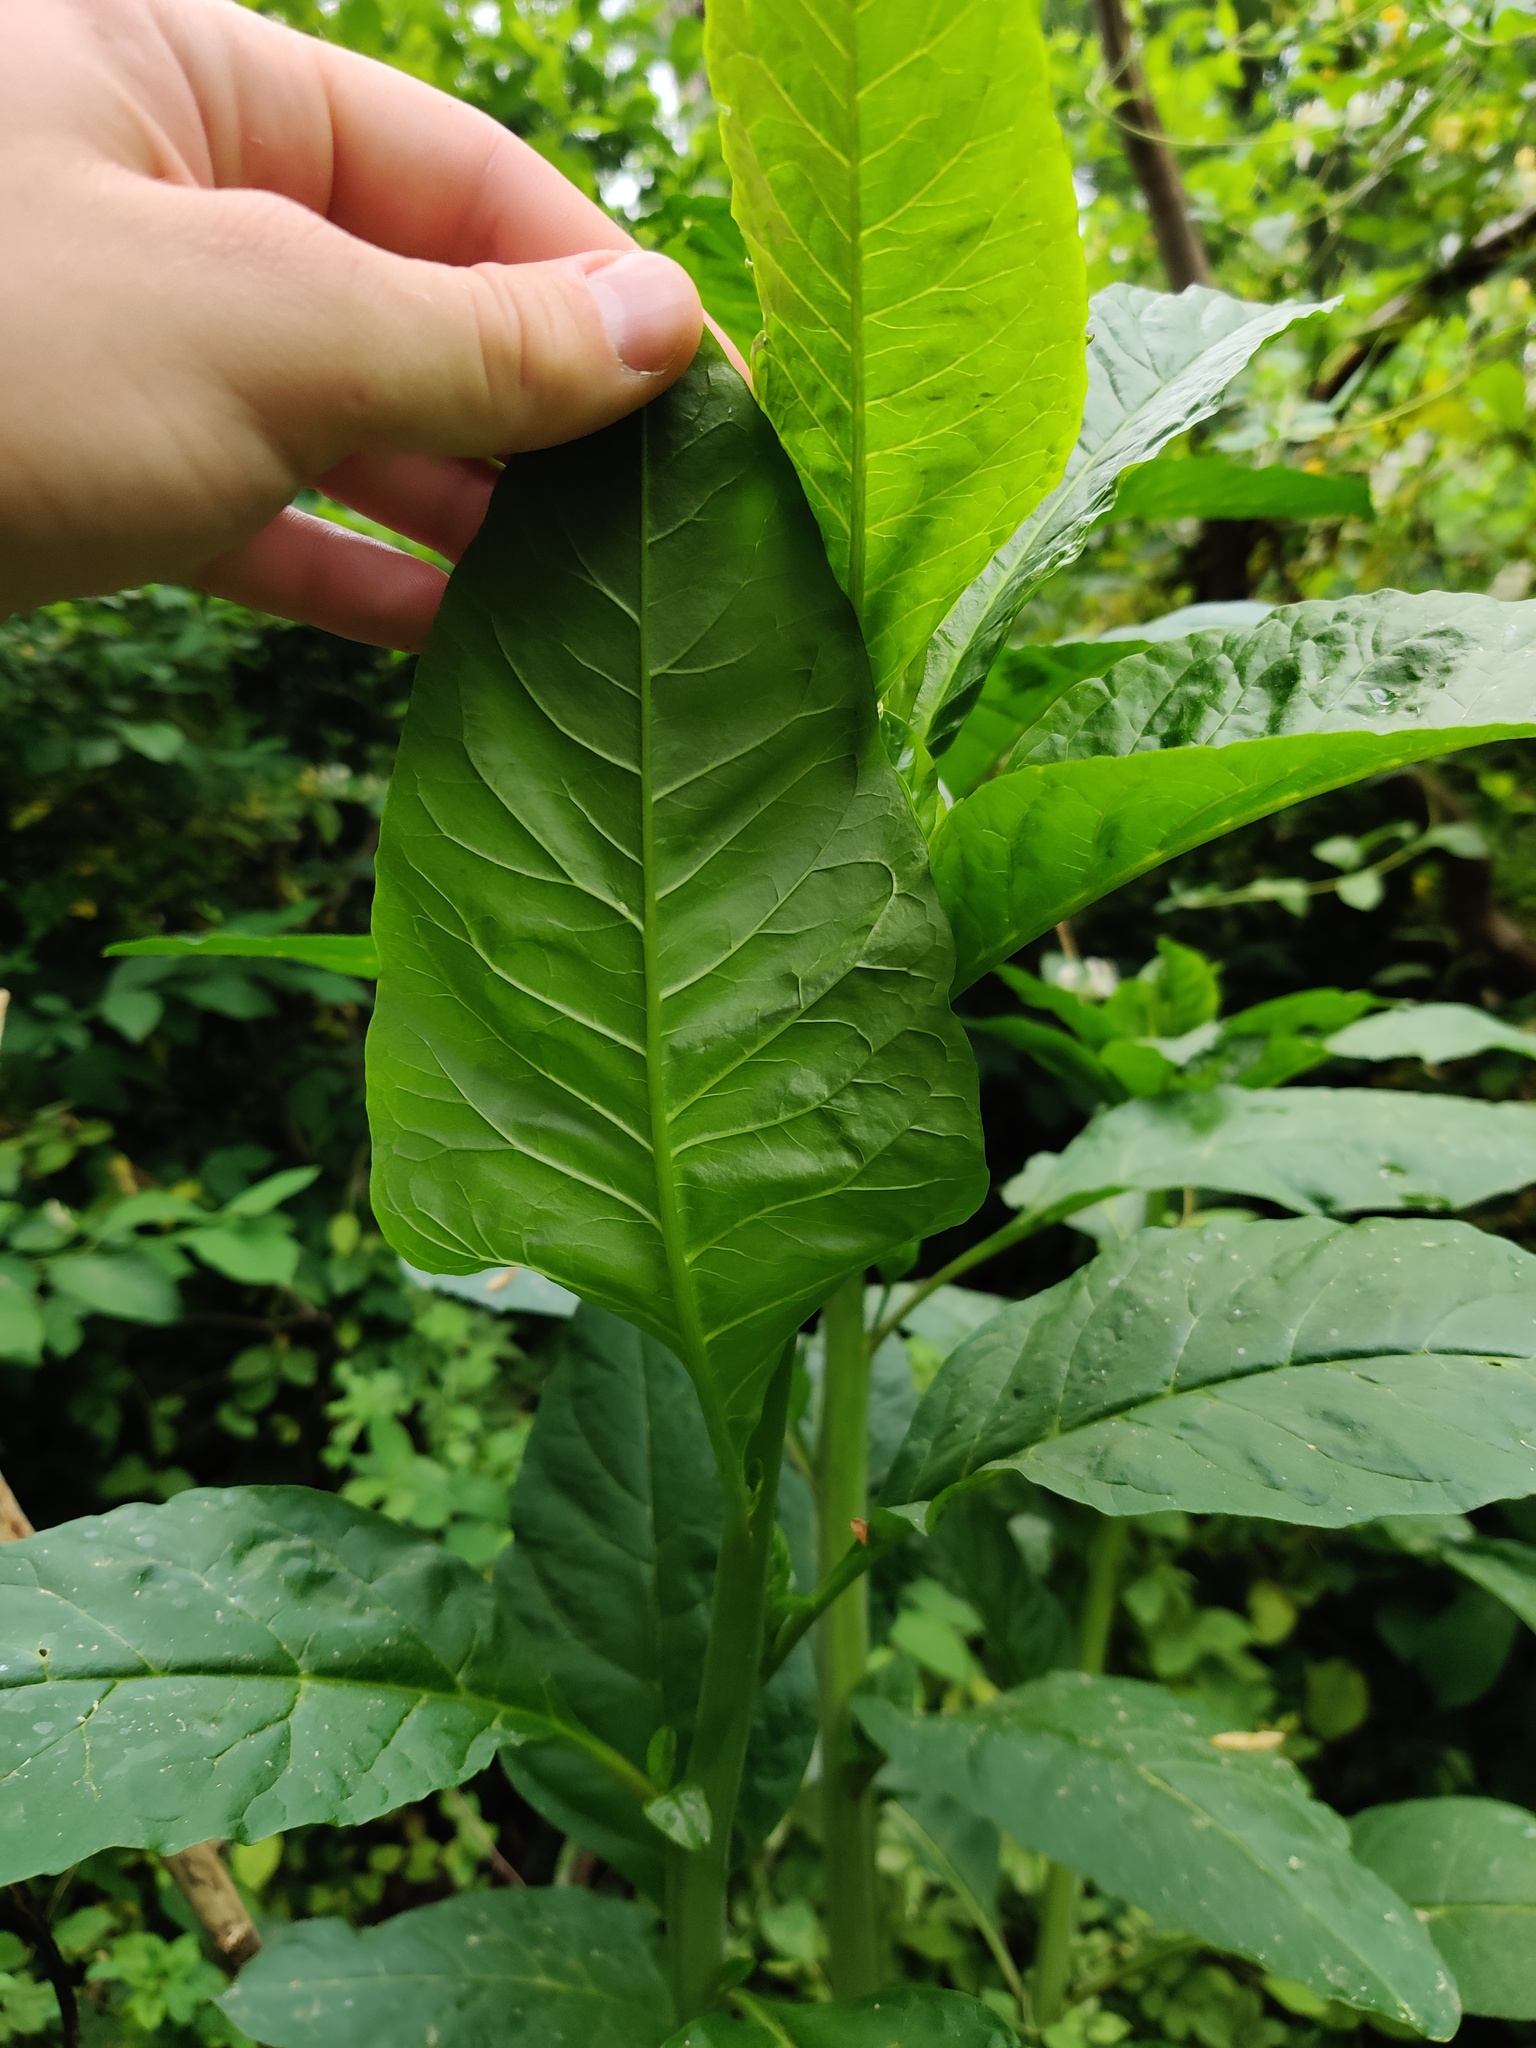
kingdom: Plantae
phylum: Tracheophyta
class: Magnoliopsida
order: Caryophyllales
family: Phytolaccaceae
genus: Phytolacca
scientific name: Phytolacca americana
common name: American pokeweed
